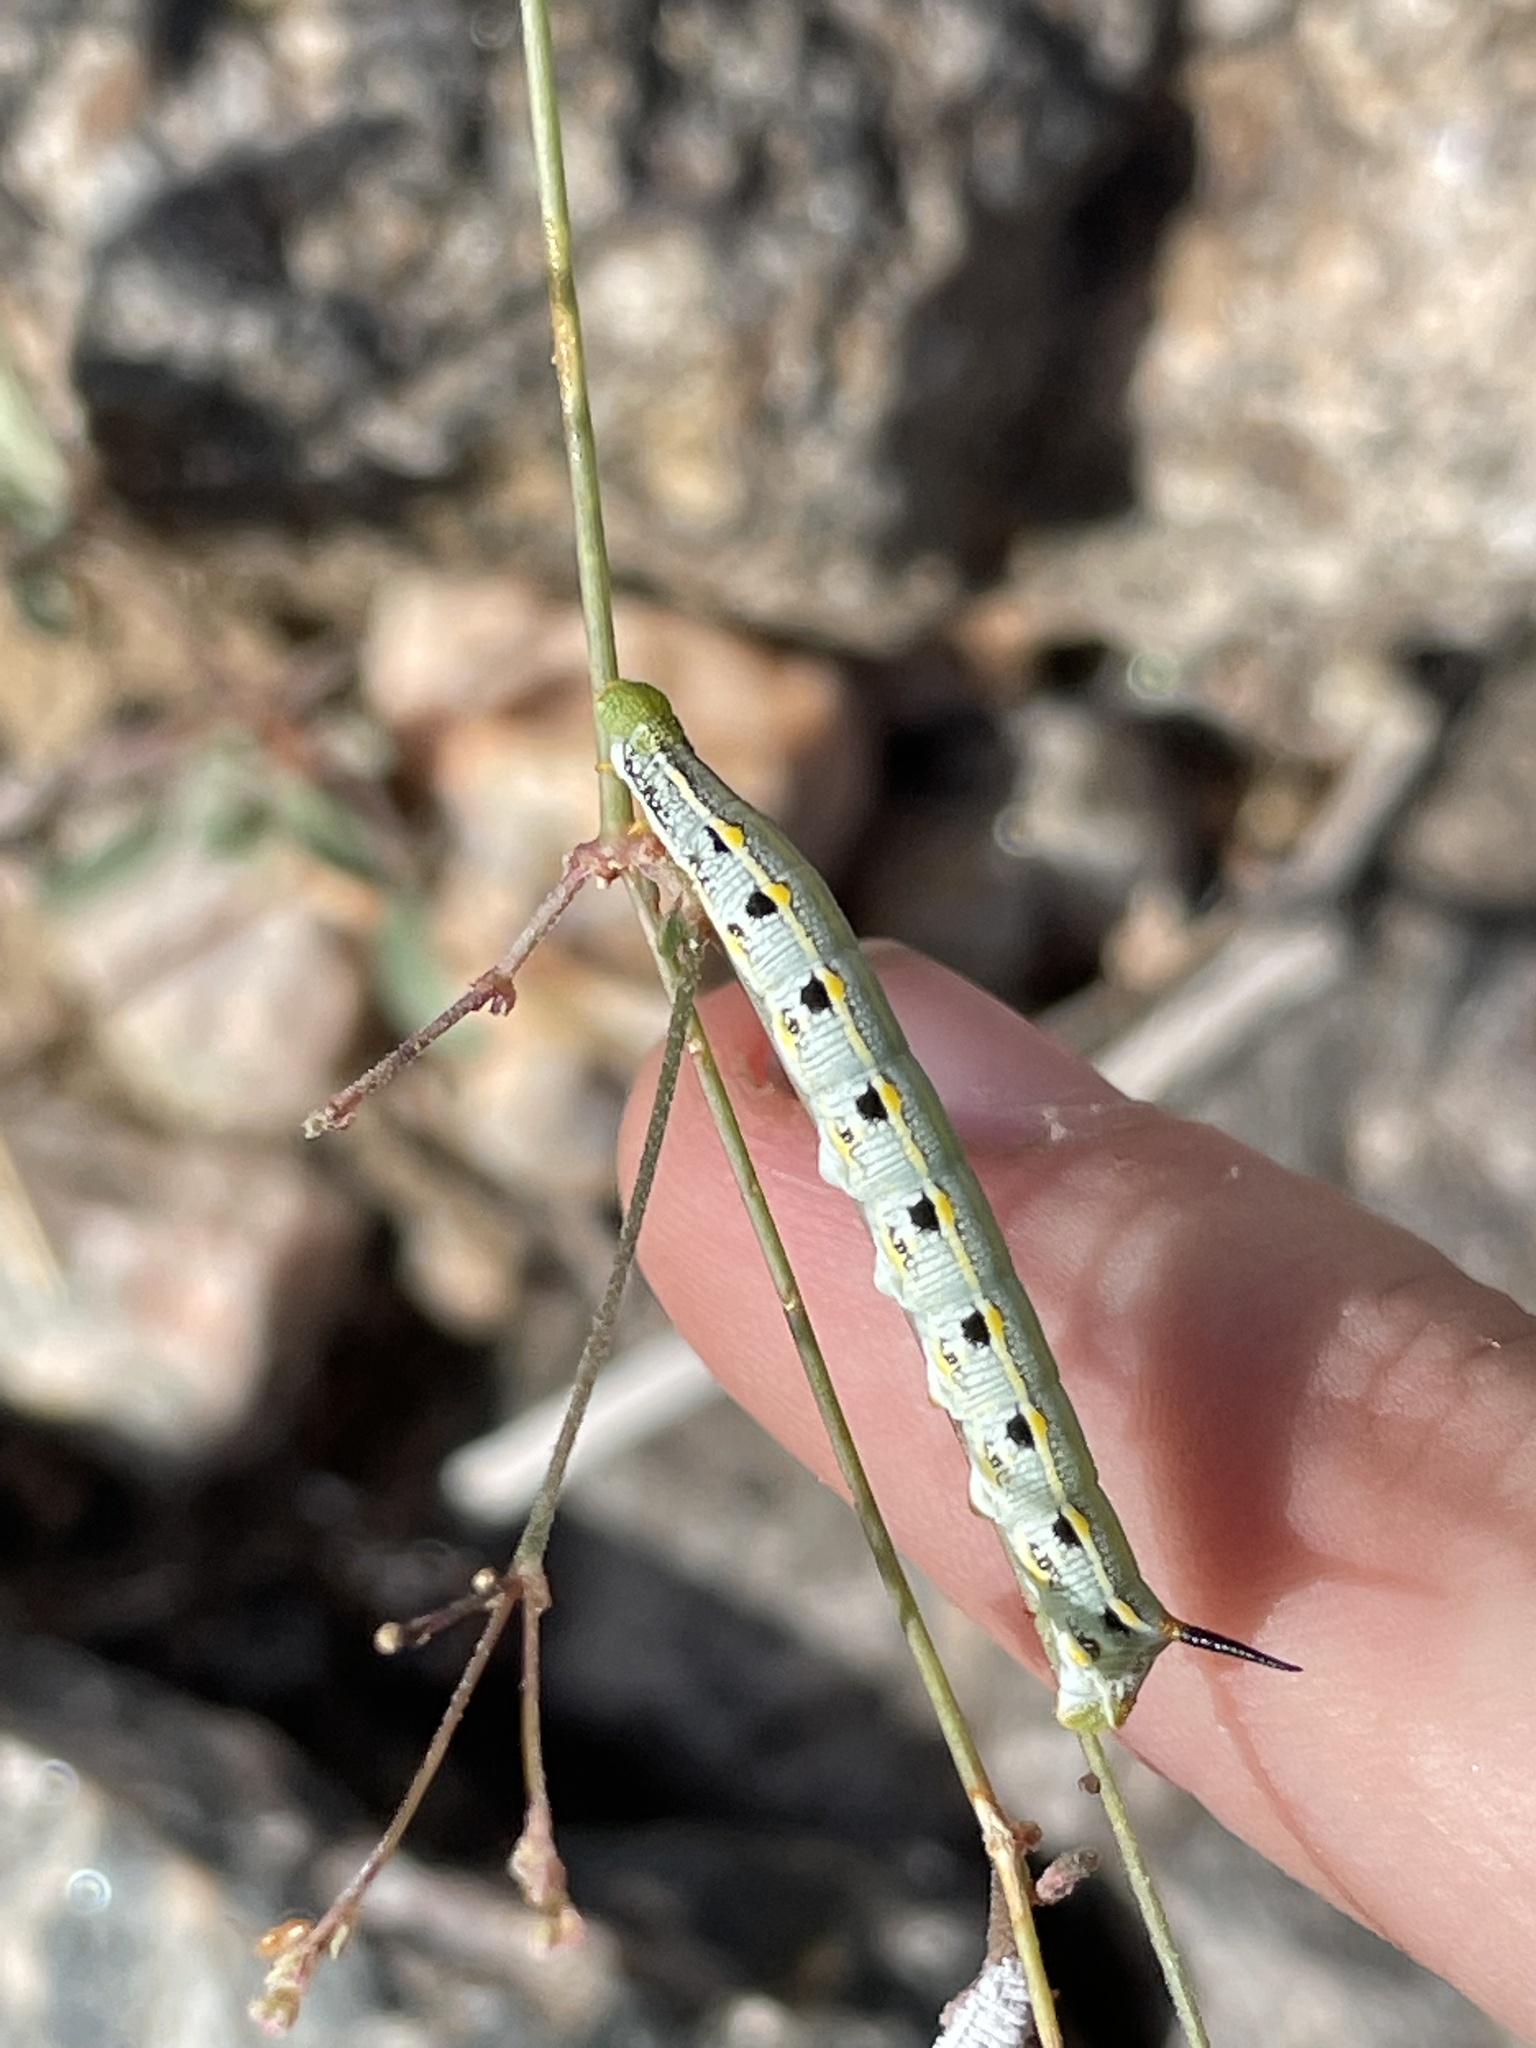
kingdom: Animalia
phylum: Arthropoda
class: Insecta
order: Lepidoptera
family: Sphingidae
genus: Hyles
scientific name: Hyles lineata
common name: White-lined sphinx
